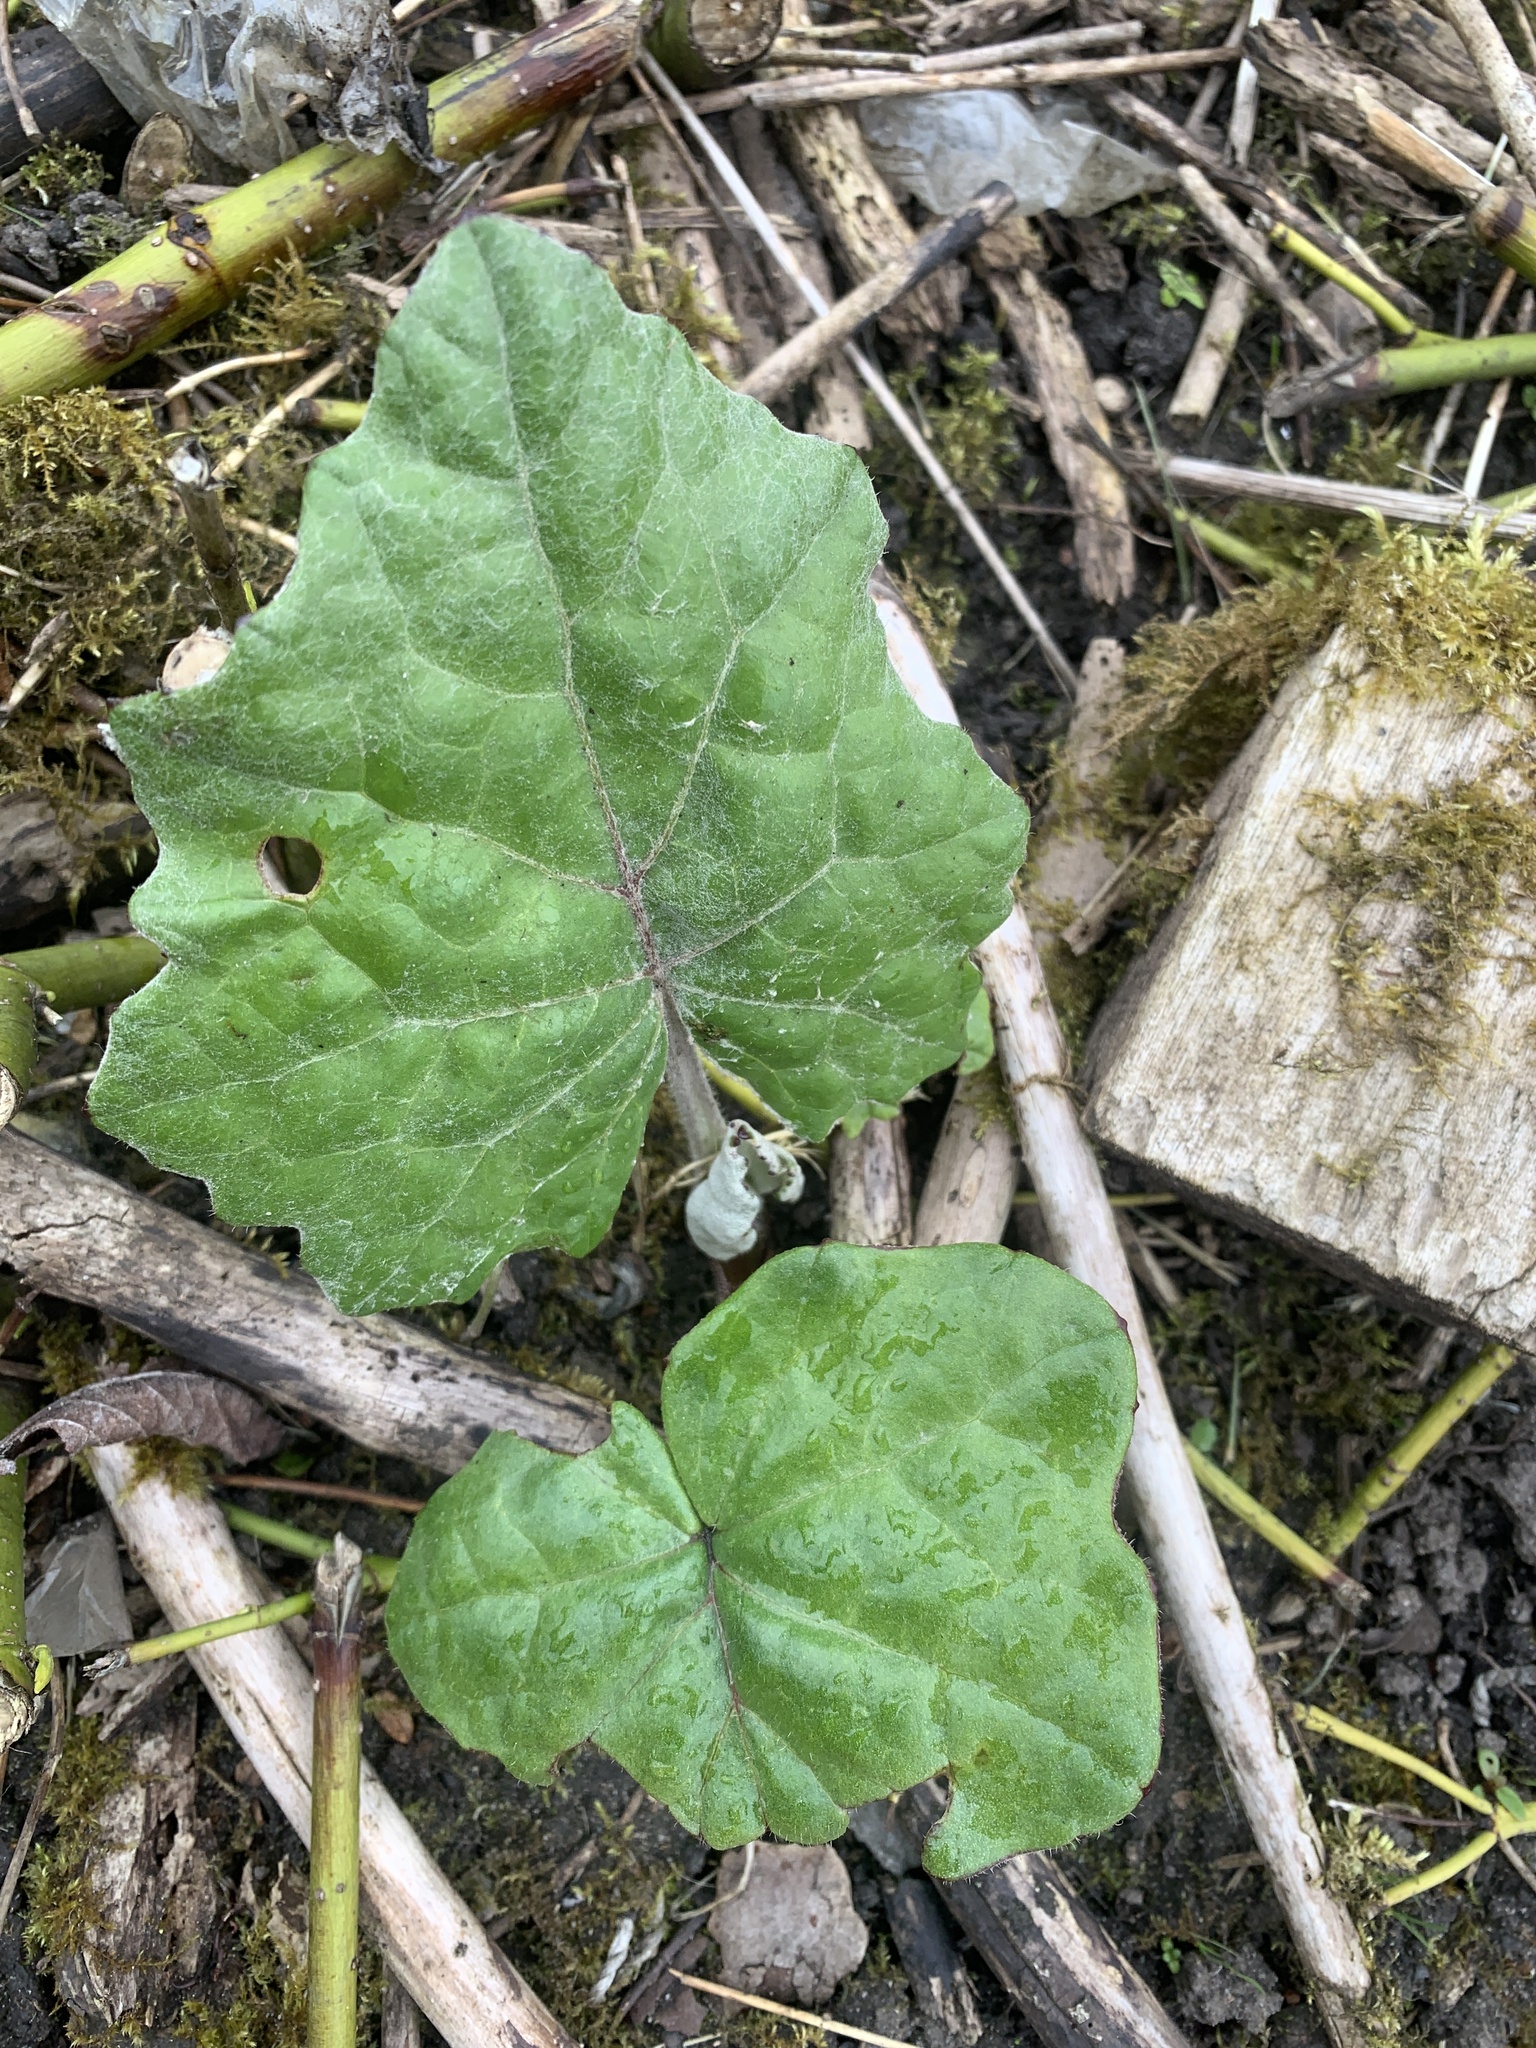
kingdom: Plantae
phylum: Tracheophyta
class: Magnoliopsida
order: Asterales
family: Asteraceae
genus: Tussilago
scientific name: Tussilago farfara
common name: Coltsfoot
